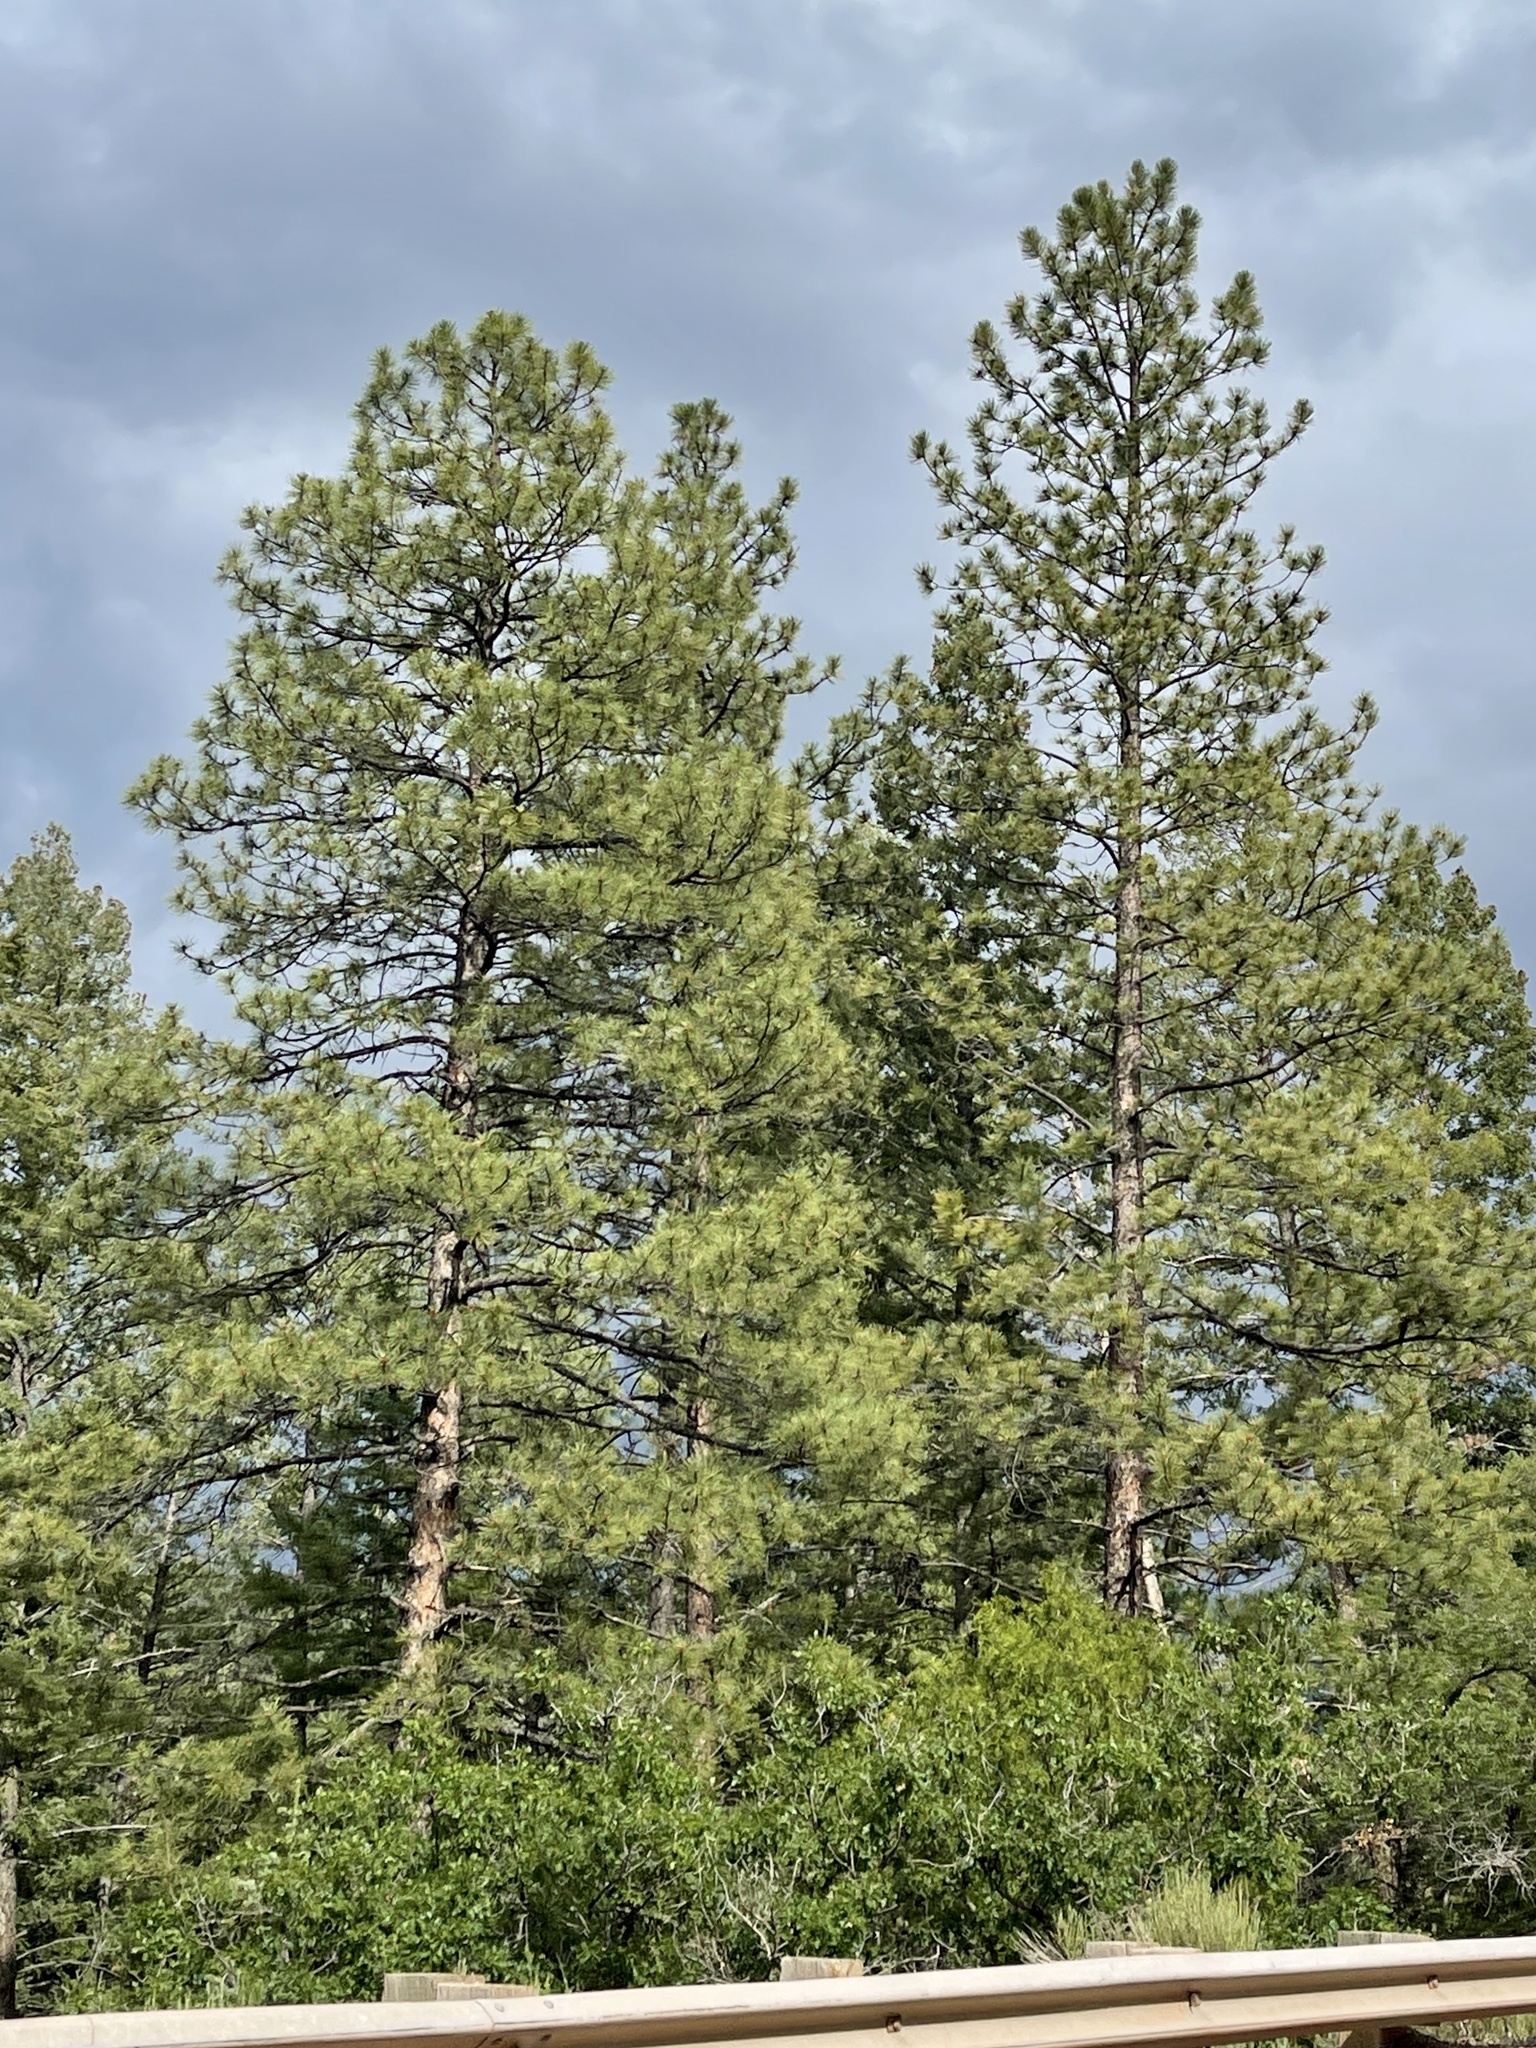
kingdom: Plantae
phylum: Tracheophyta
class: Pinopsida
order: Pinales
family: Pinaceae
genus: Pinus
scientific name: Pinus ponderosa
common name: Western yellow-pine
